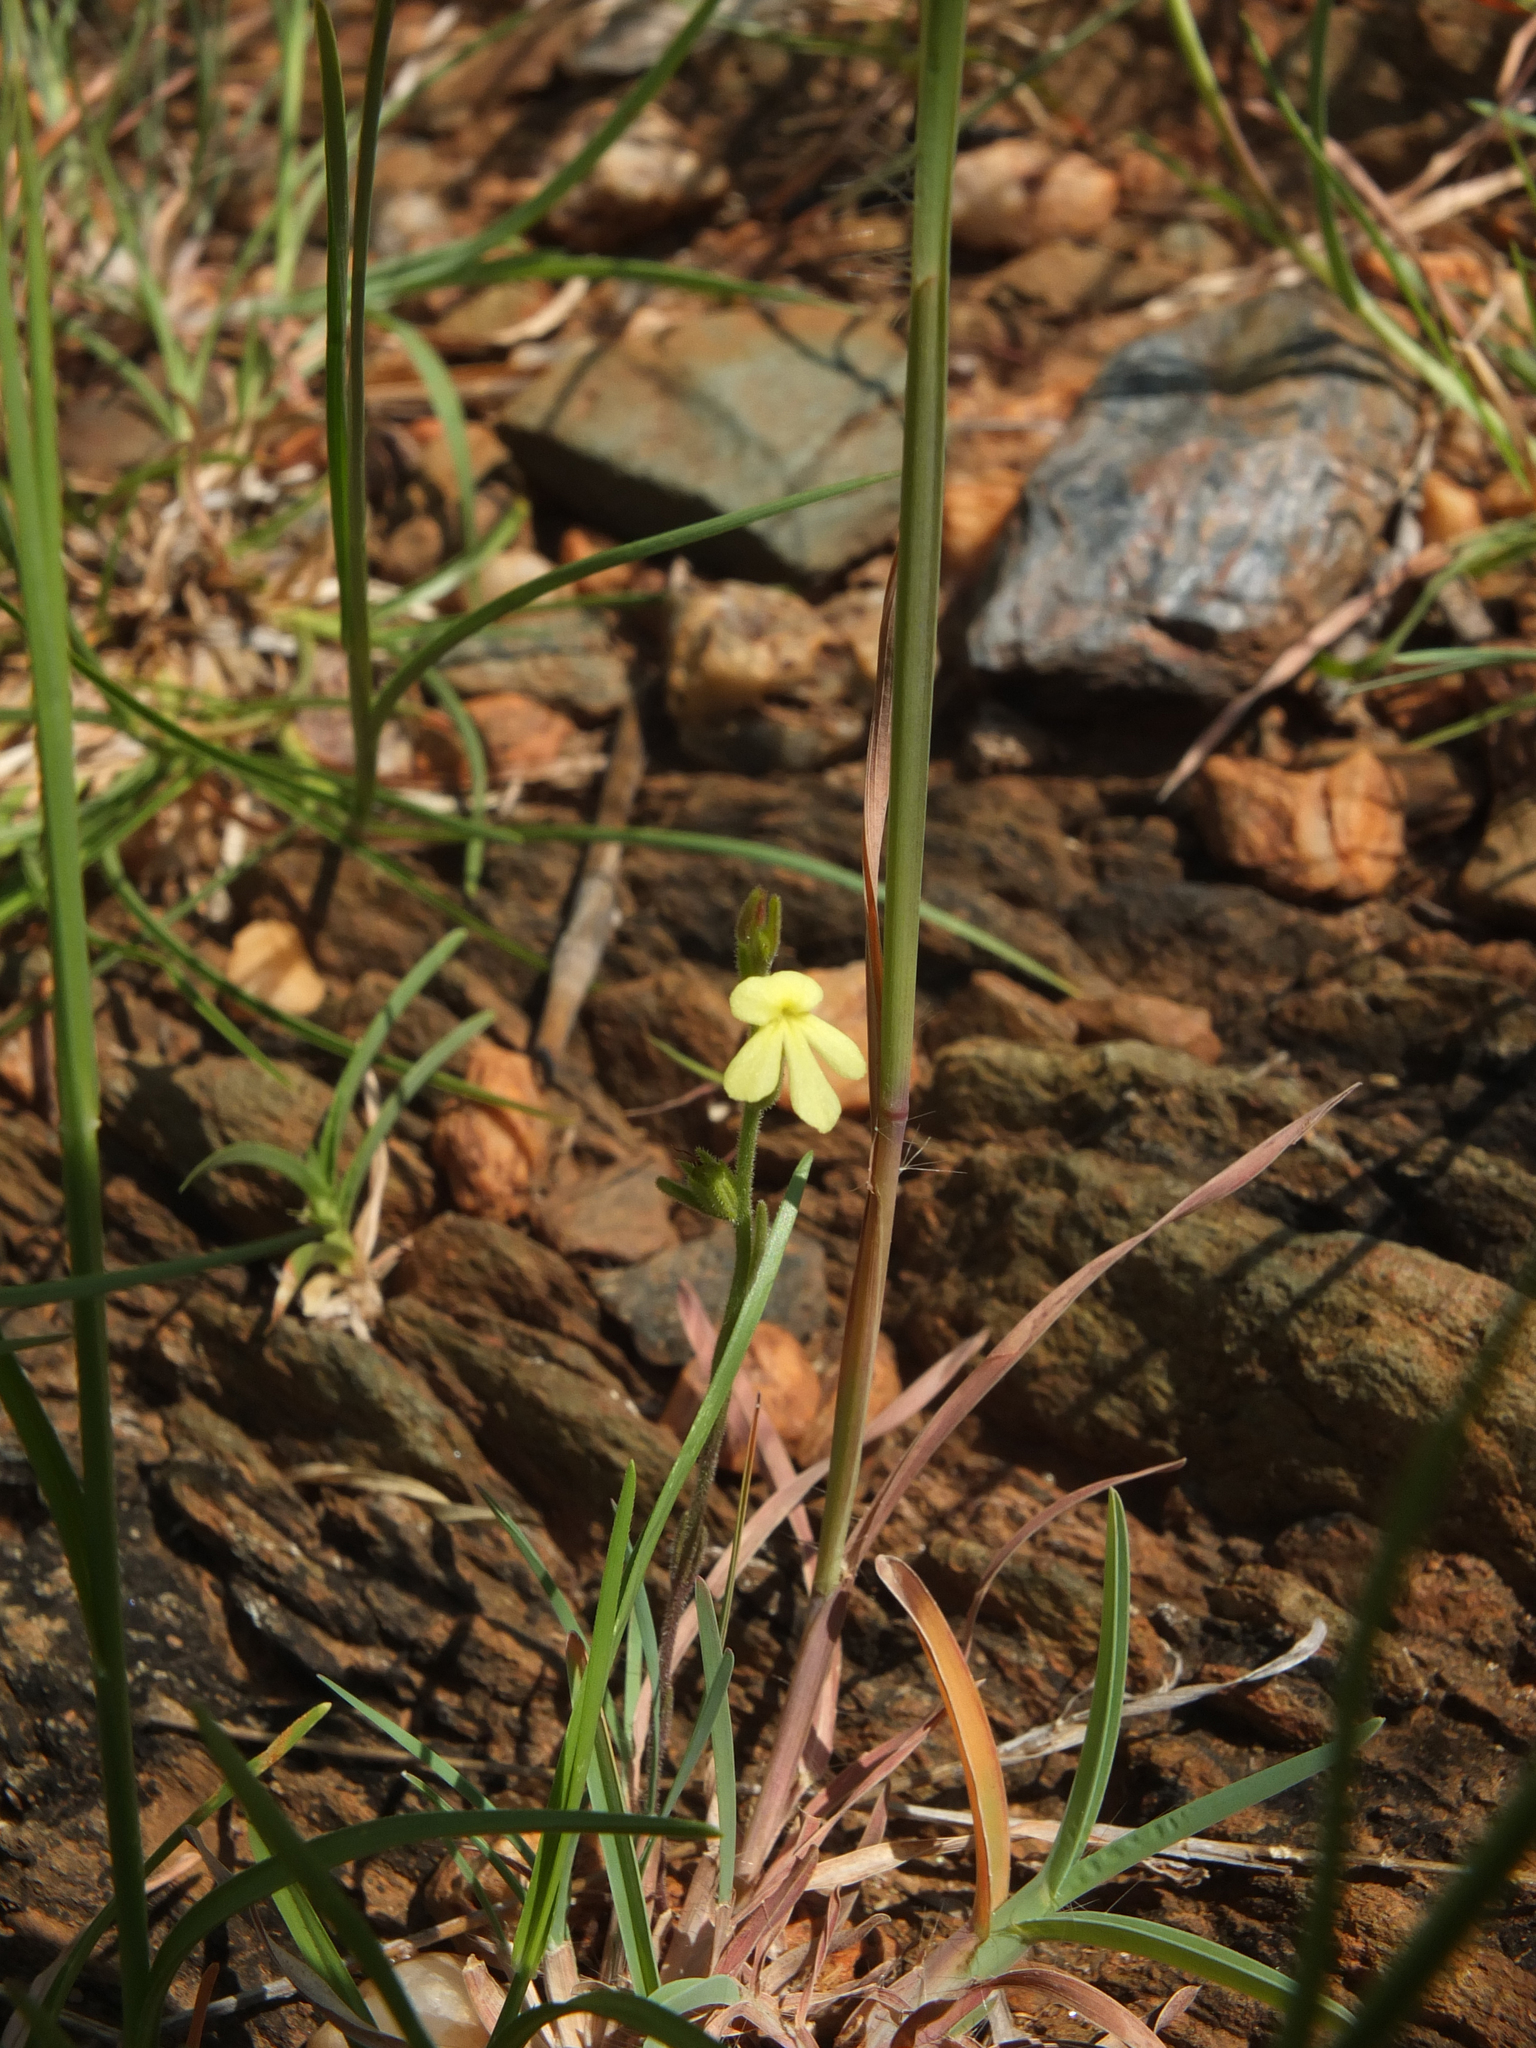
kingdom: Plantae
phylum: Tracheophyta
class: Magnoliopsida
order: Lamiales
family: Orobanchaceae
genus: Striga
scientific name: Striga asiatica
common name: Asiatic witchweed
